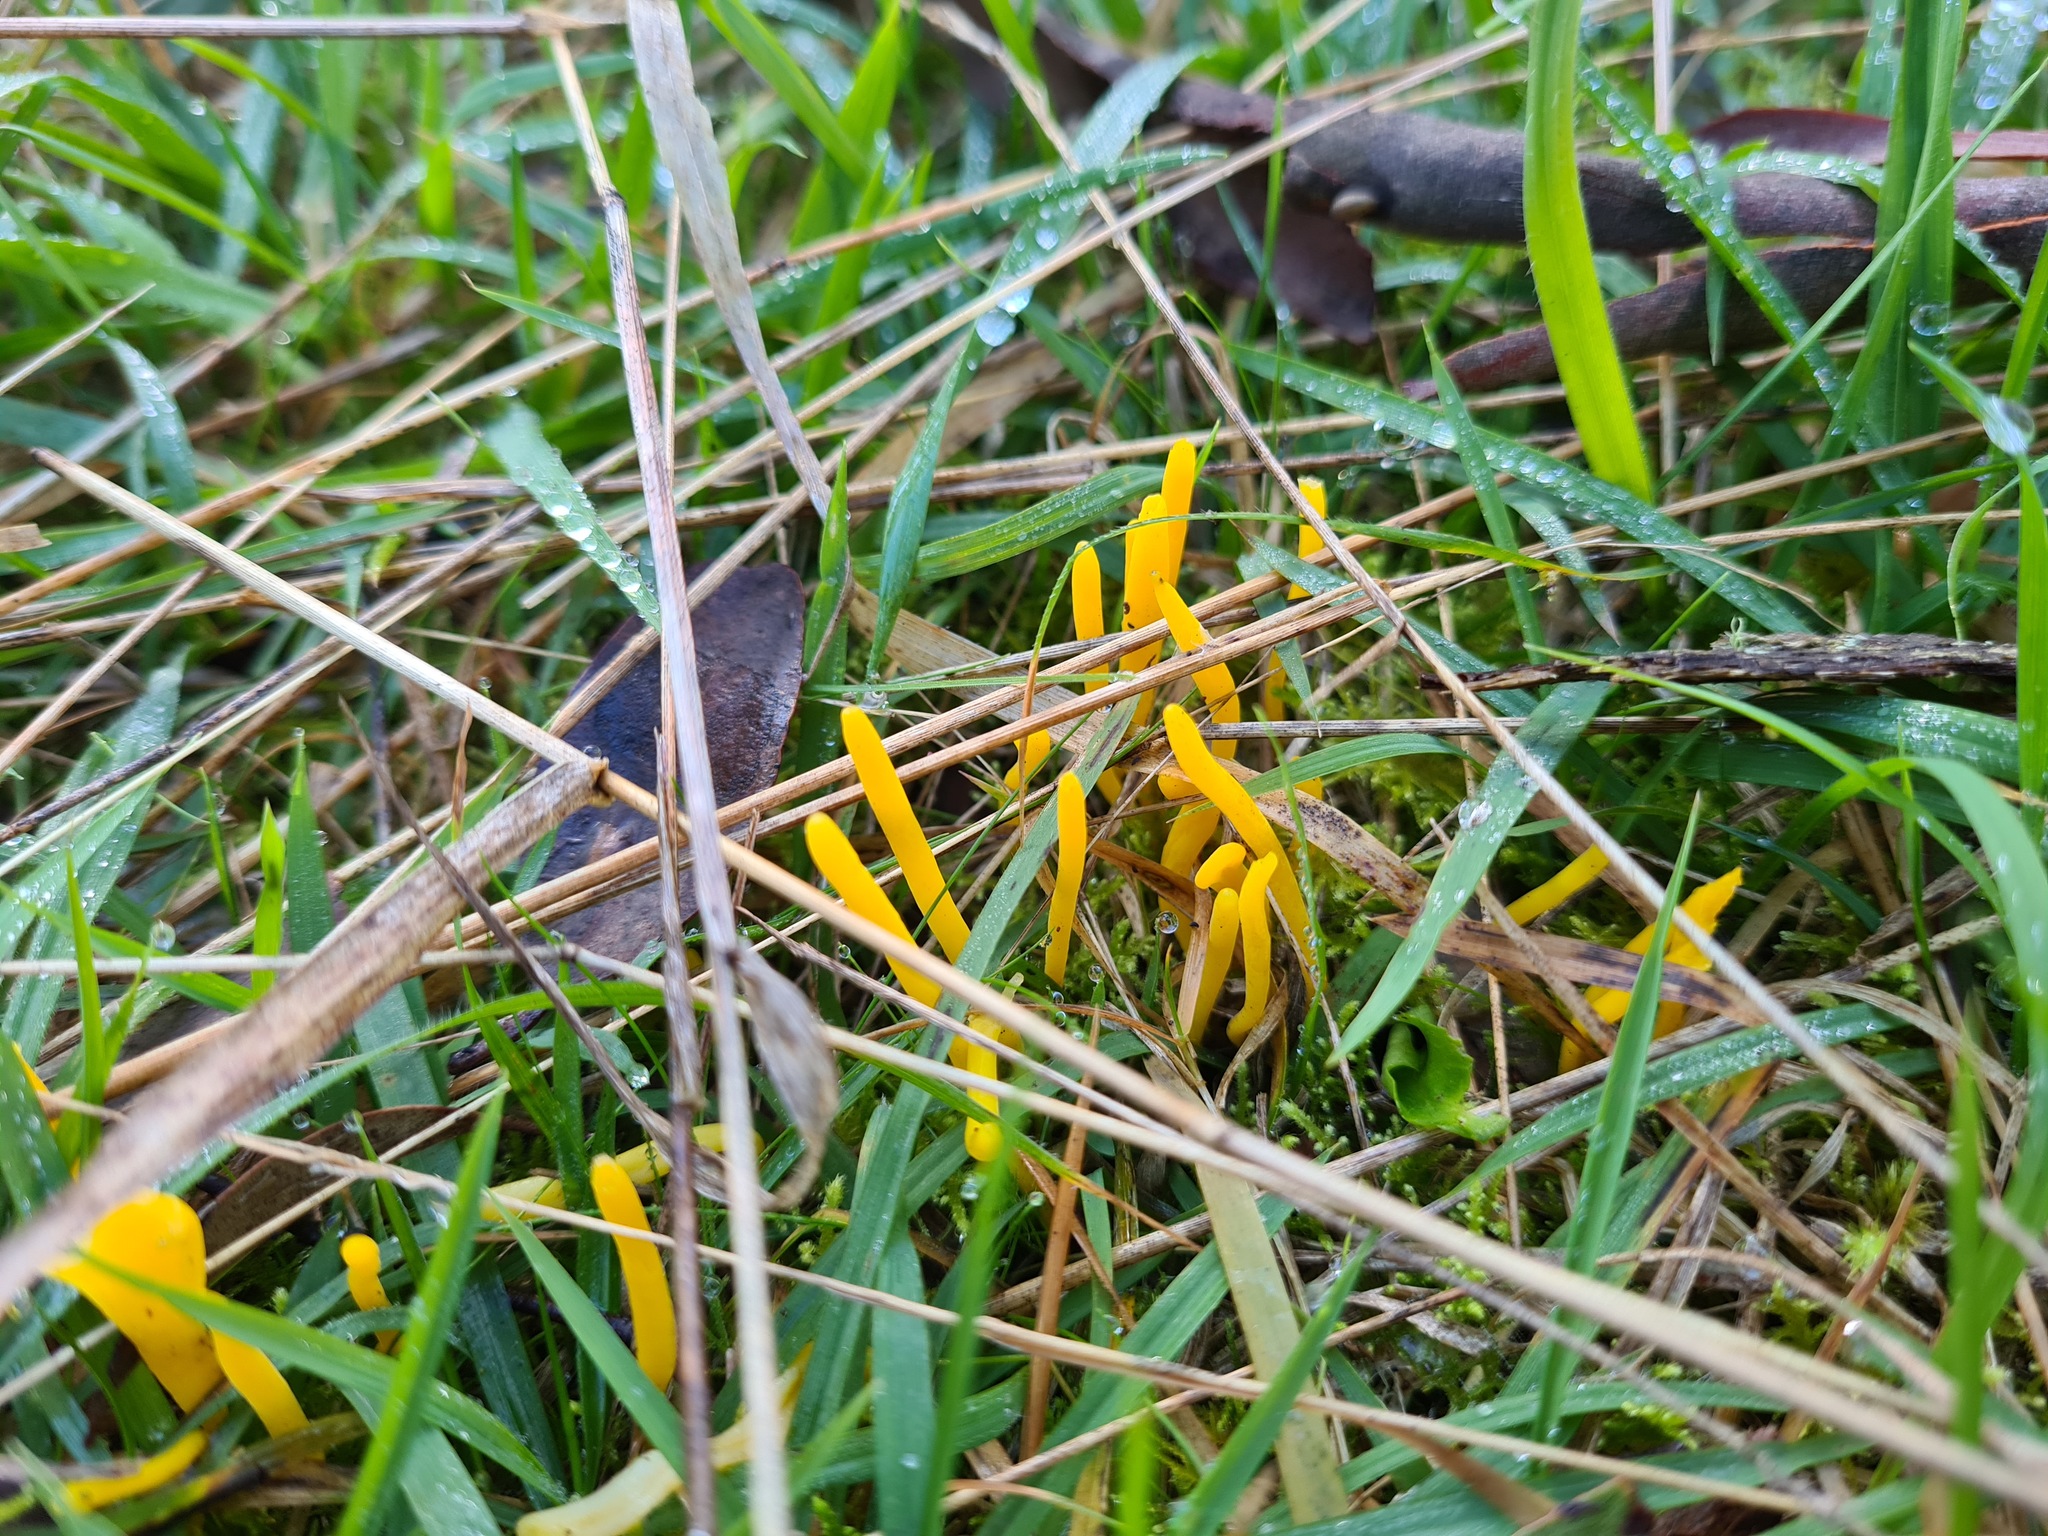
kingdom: Fungi
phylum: Basidiomycota
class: Agaricomycetes
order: Agaricales
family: Clavariaceae
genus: Clavulinopsis
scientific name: Clavulinopsis amoena
